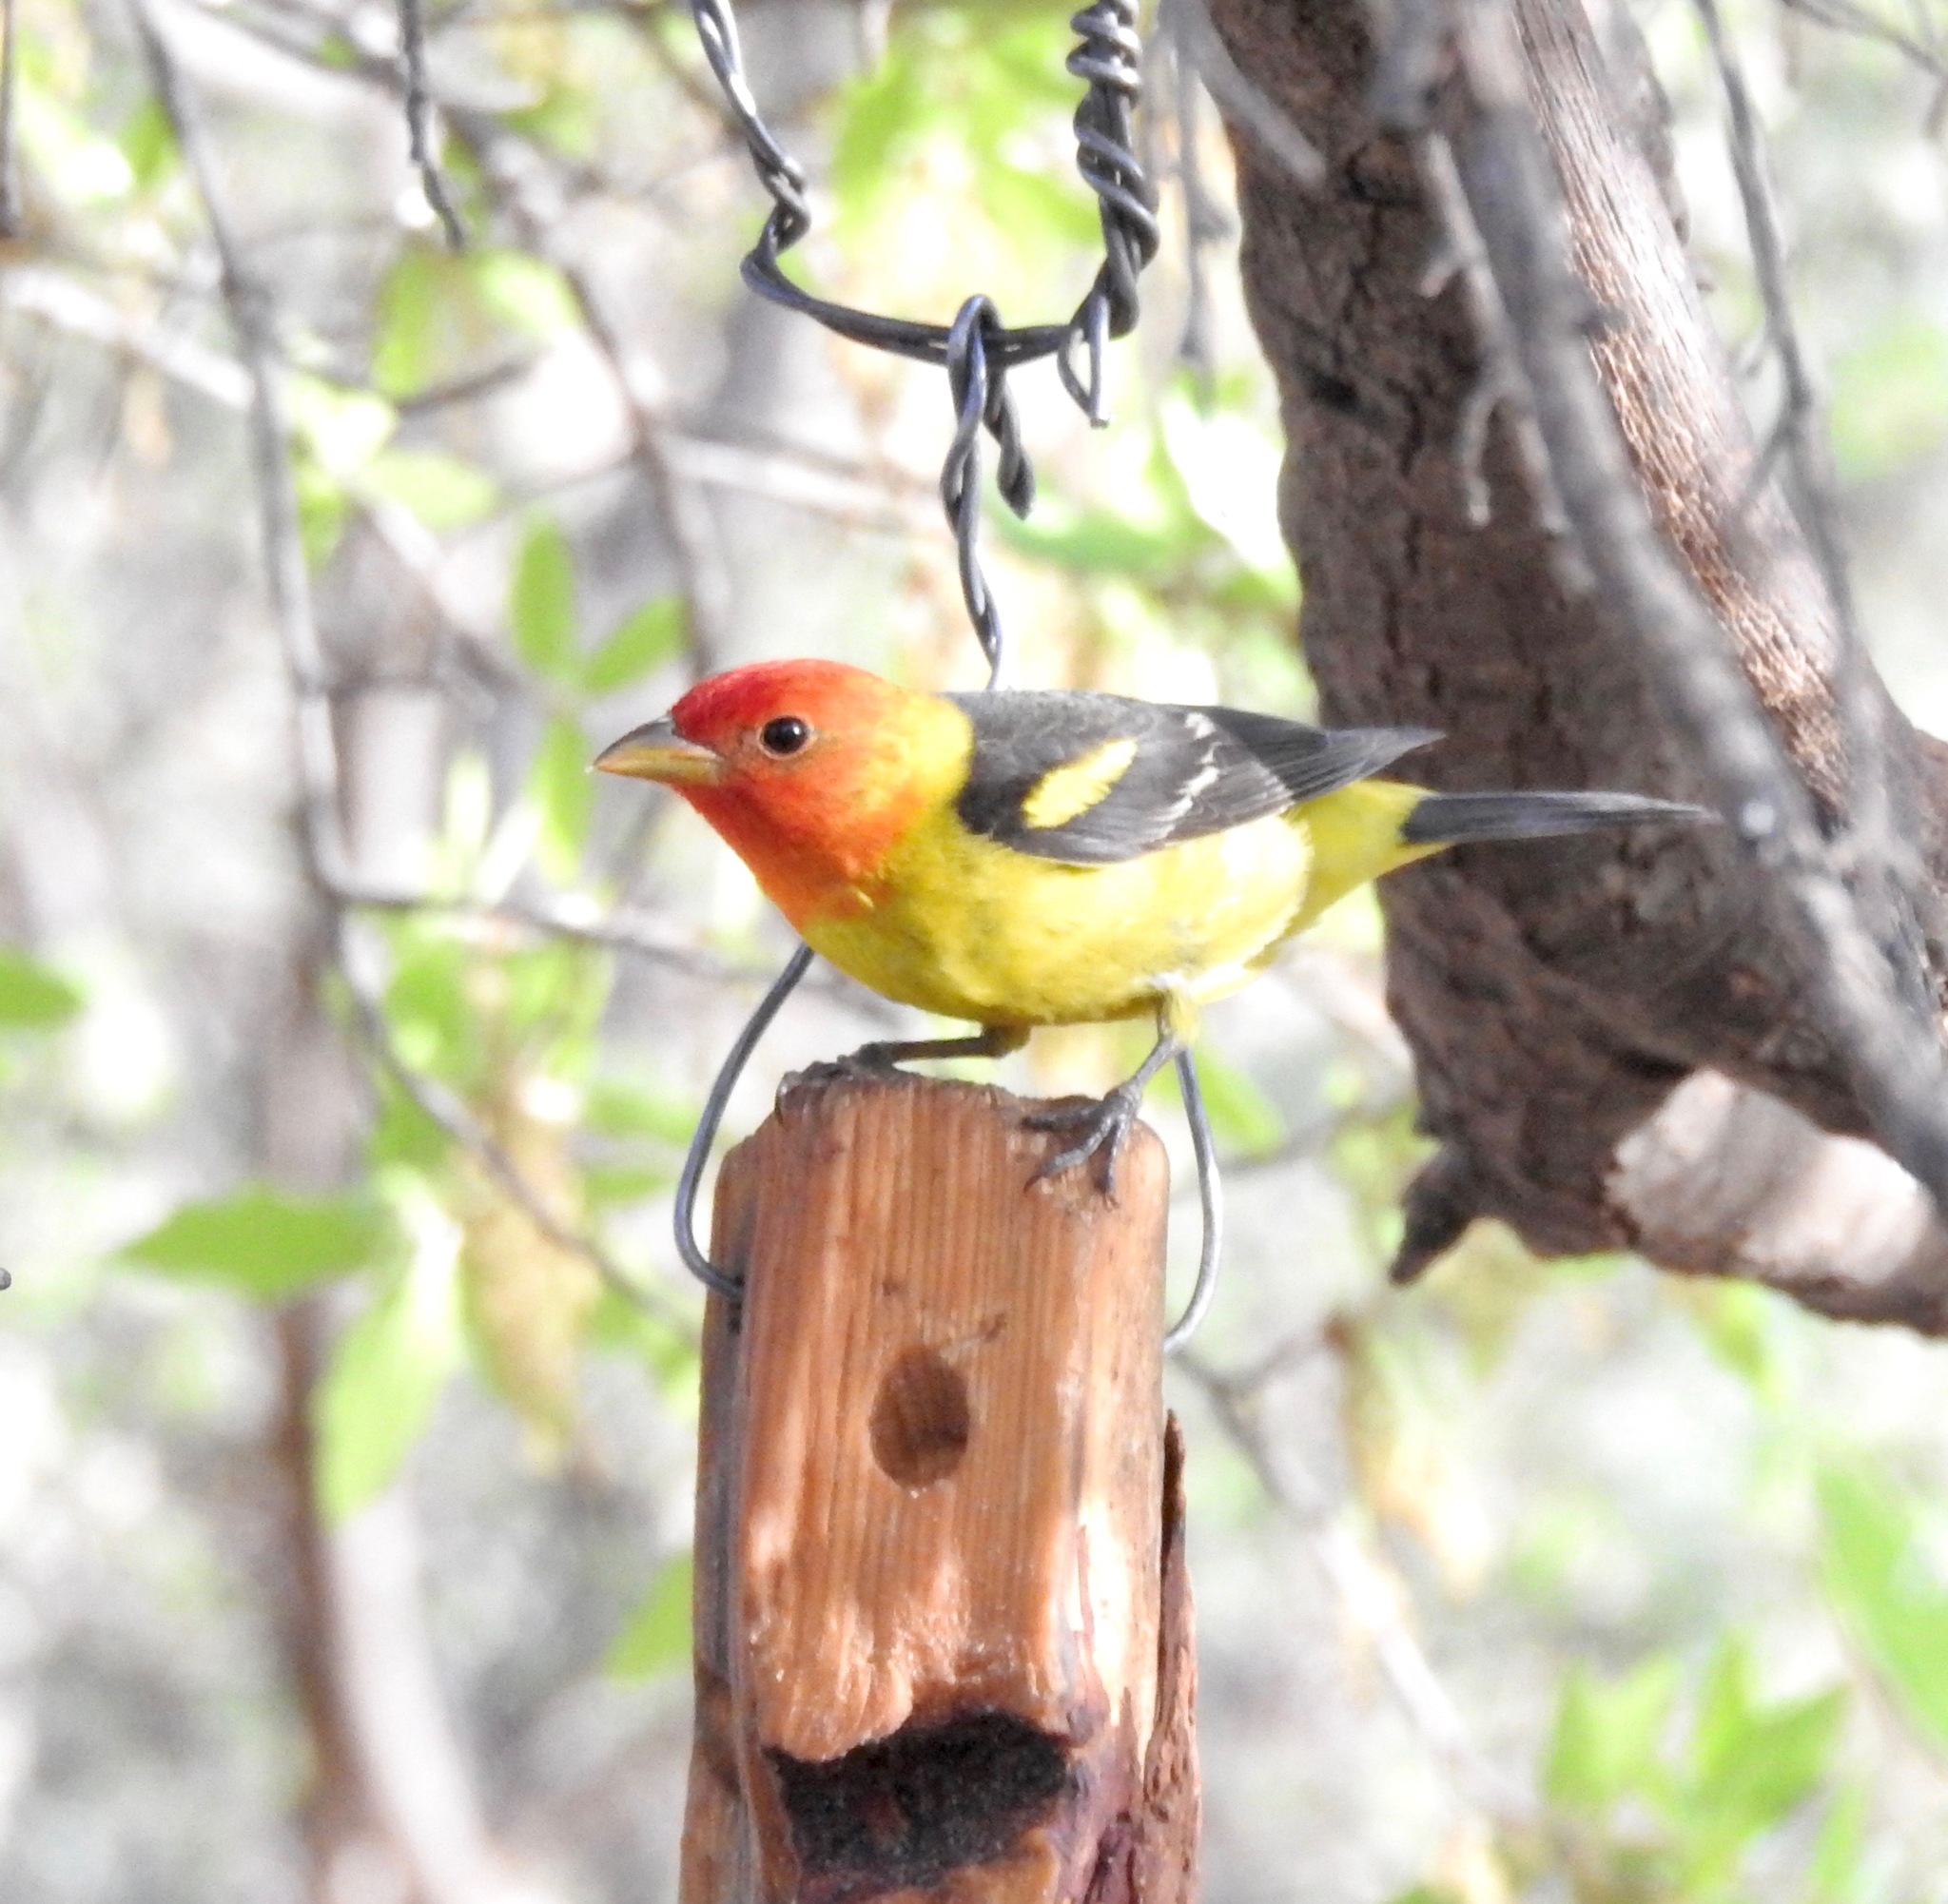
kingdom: Animalia
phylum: Chordata
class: Aves
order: Passeriformes
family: Cardinalidae
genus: Piranga
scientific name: Piranga ludoviciana
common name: Western tanager
